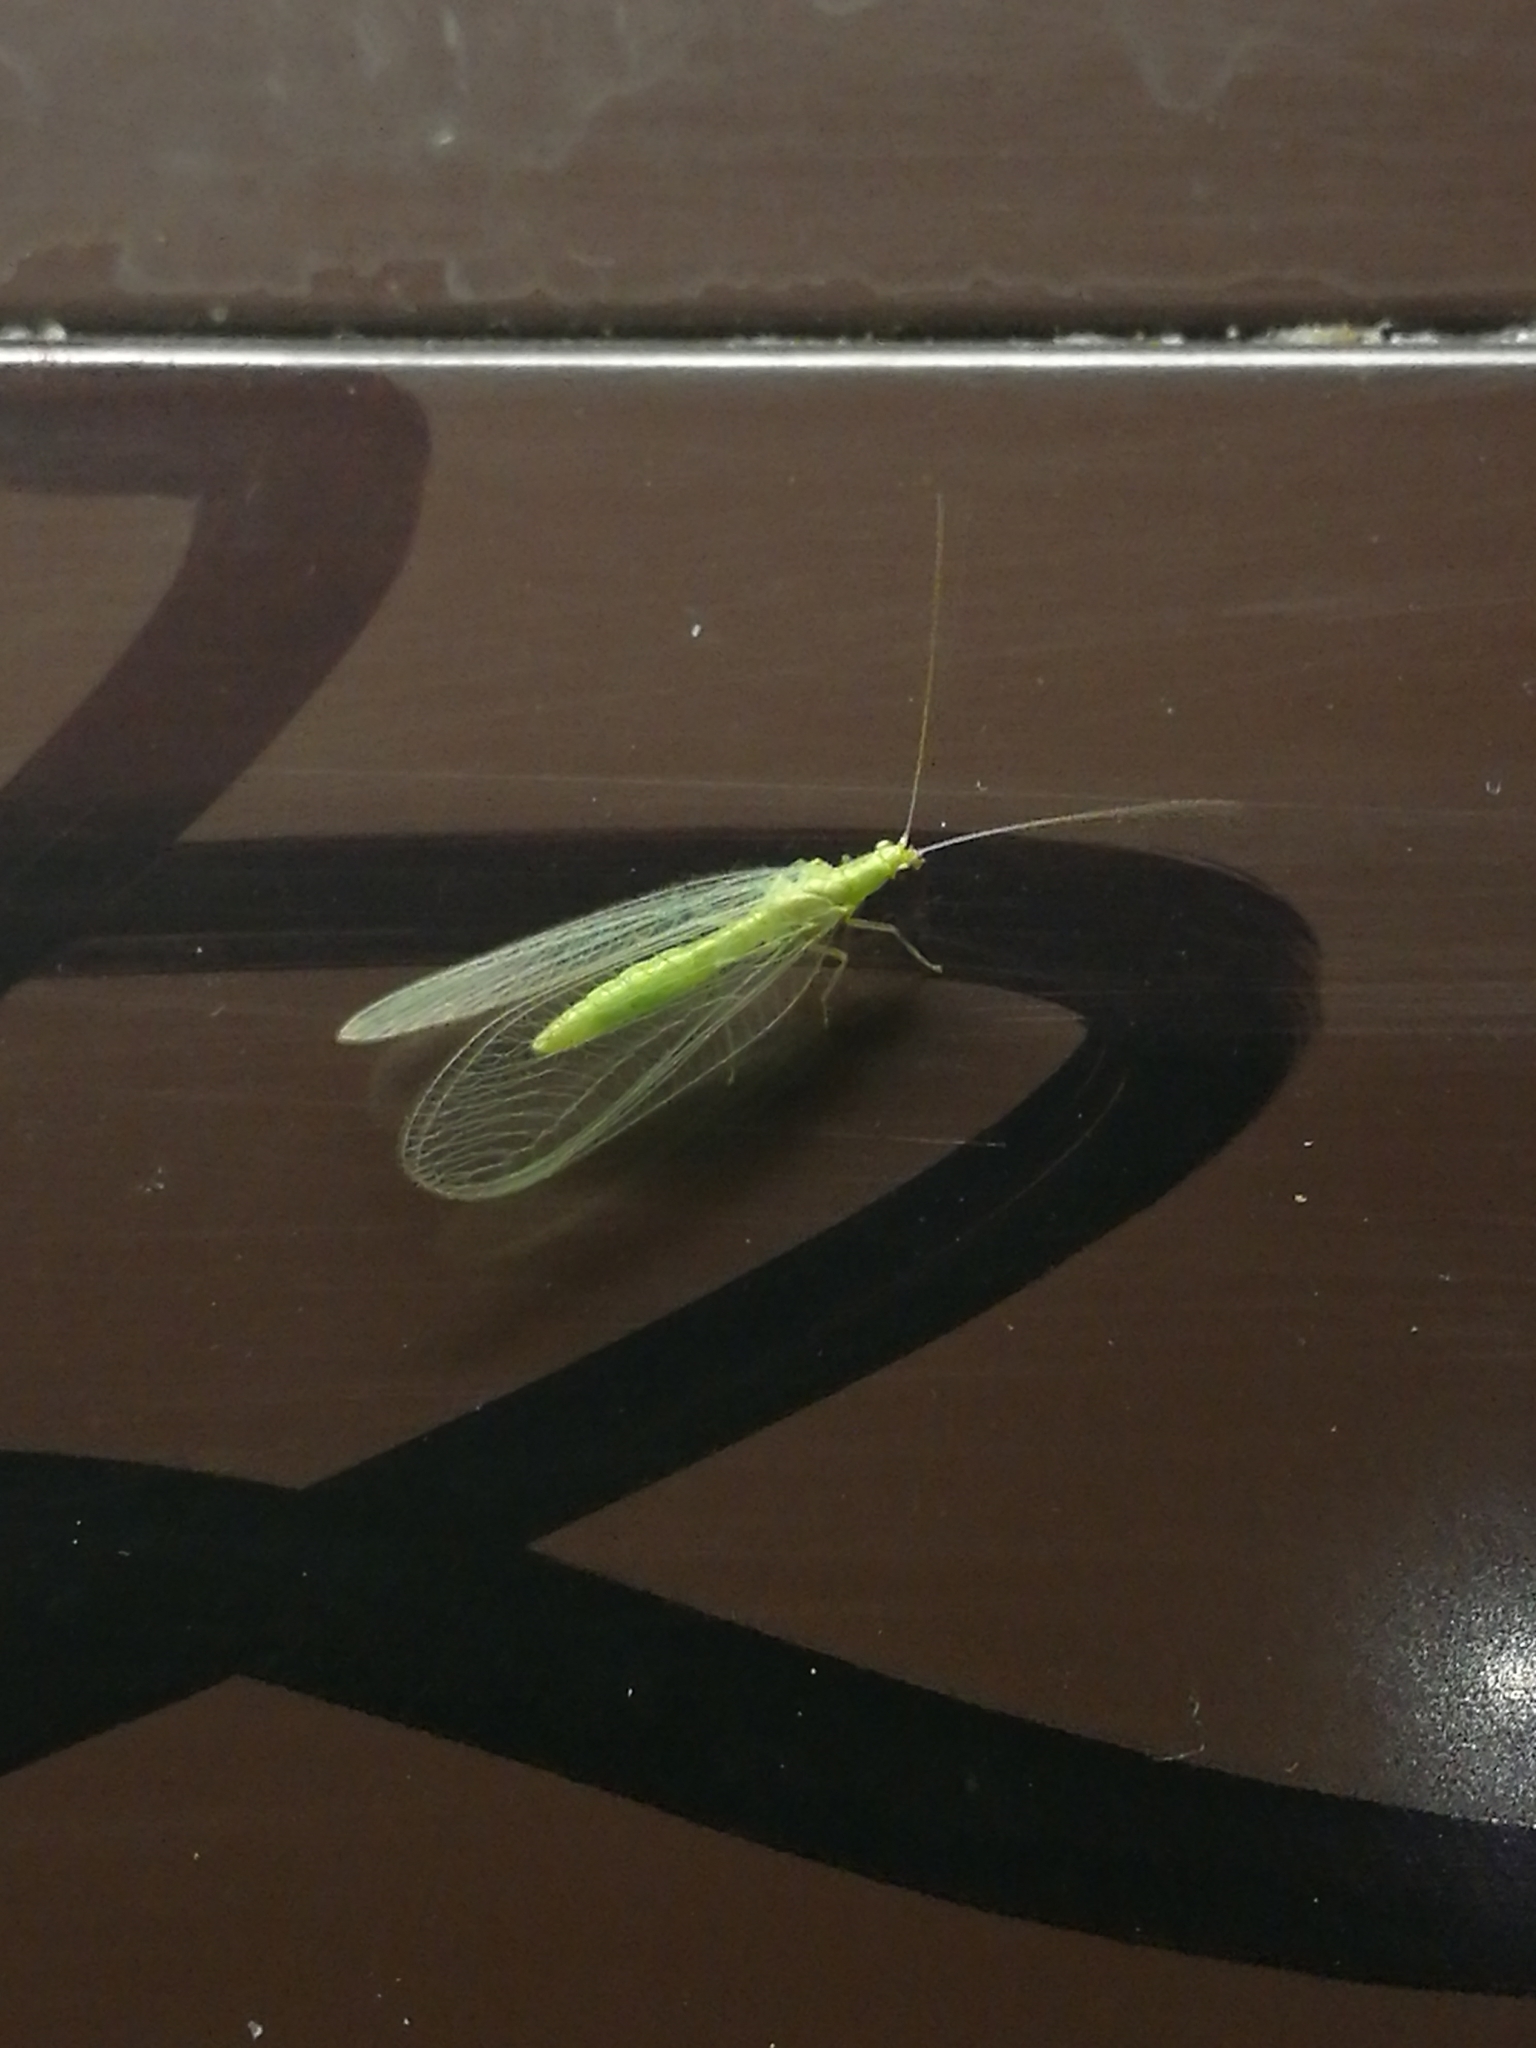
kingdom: Animalia
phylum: Arthropoda
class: Insecta
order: Neuroptera
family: Chrysopidae
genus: Chrysoperla
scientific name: Chrysoperla
